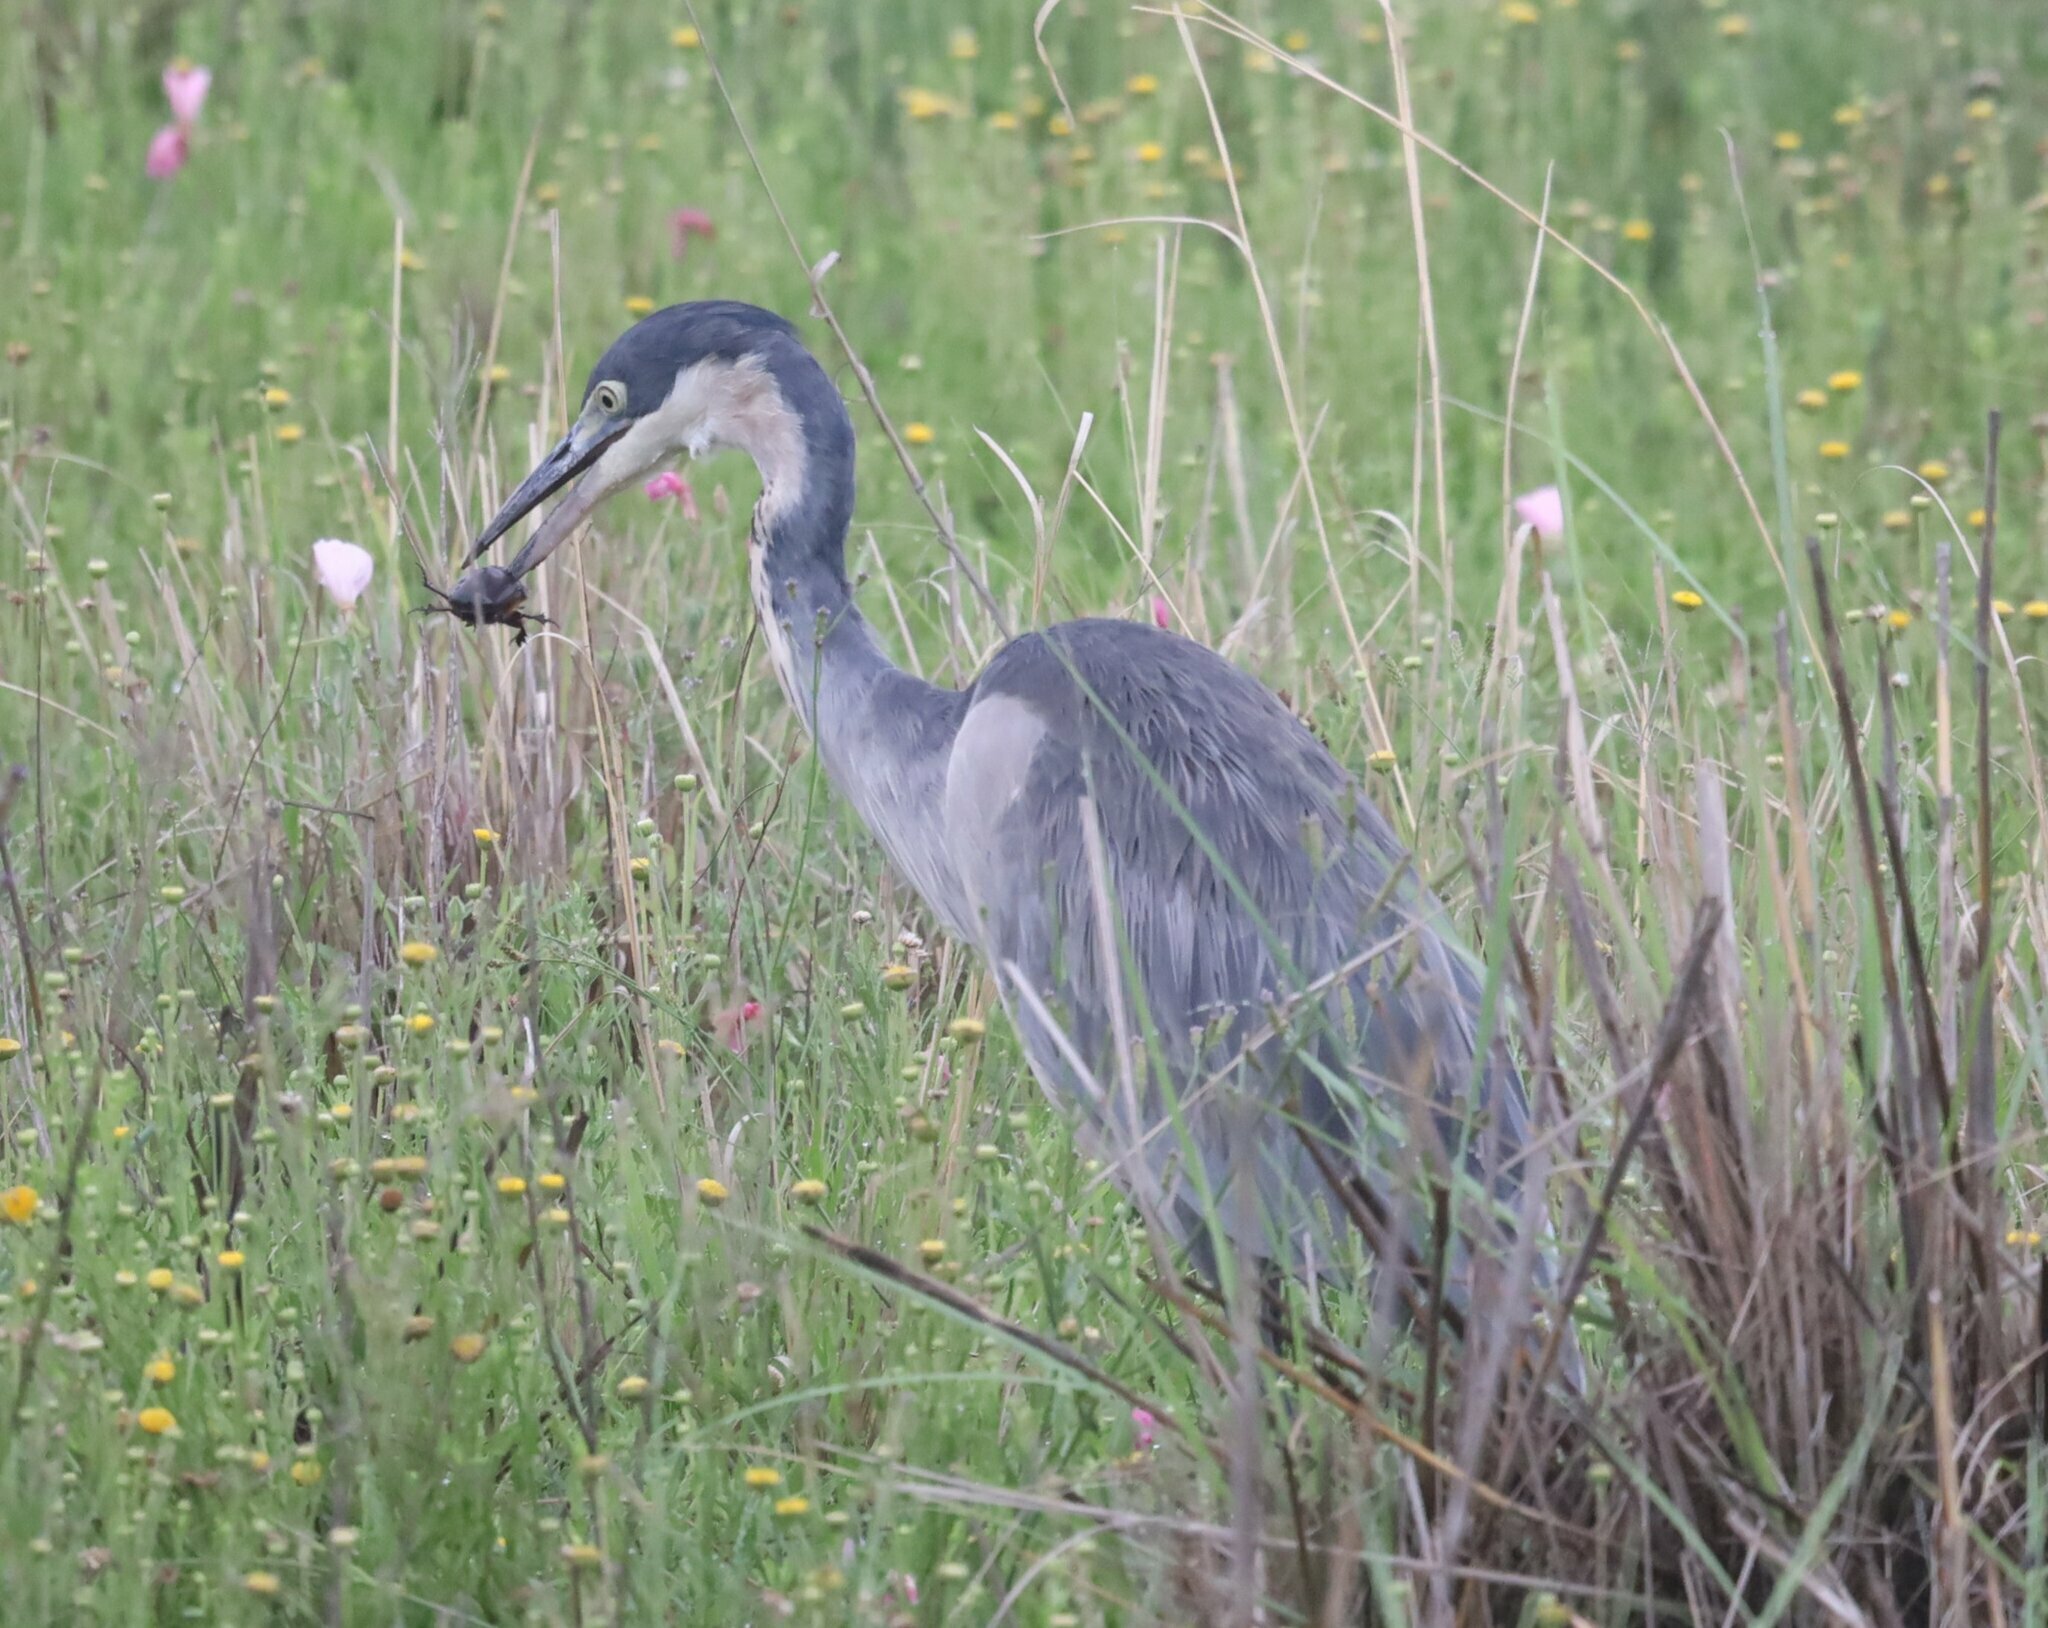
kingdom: Animalia
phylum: Chordata
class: Aves
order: Pelecaniformes
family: Ardeidae
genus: Ardea
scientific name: Ardea melanocephala
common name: Black-headed heron
